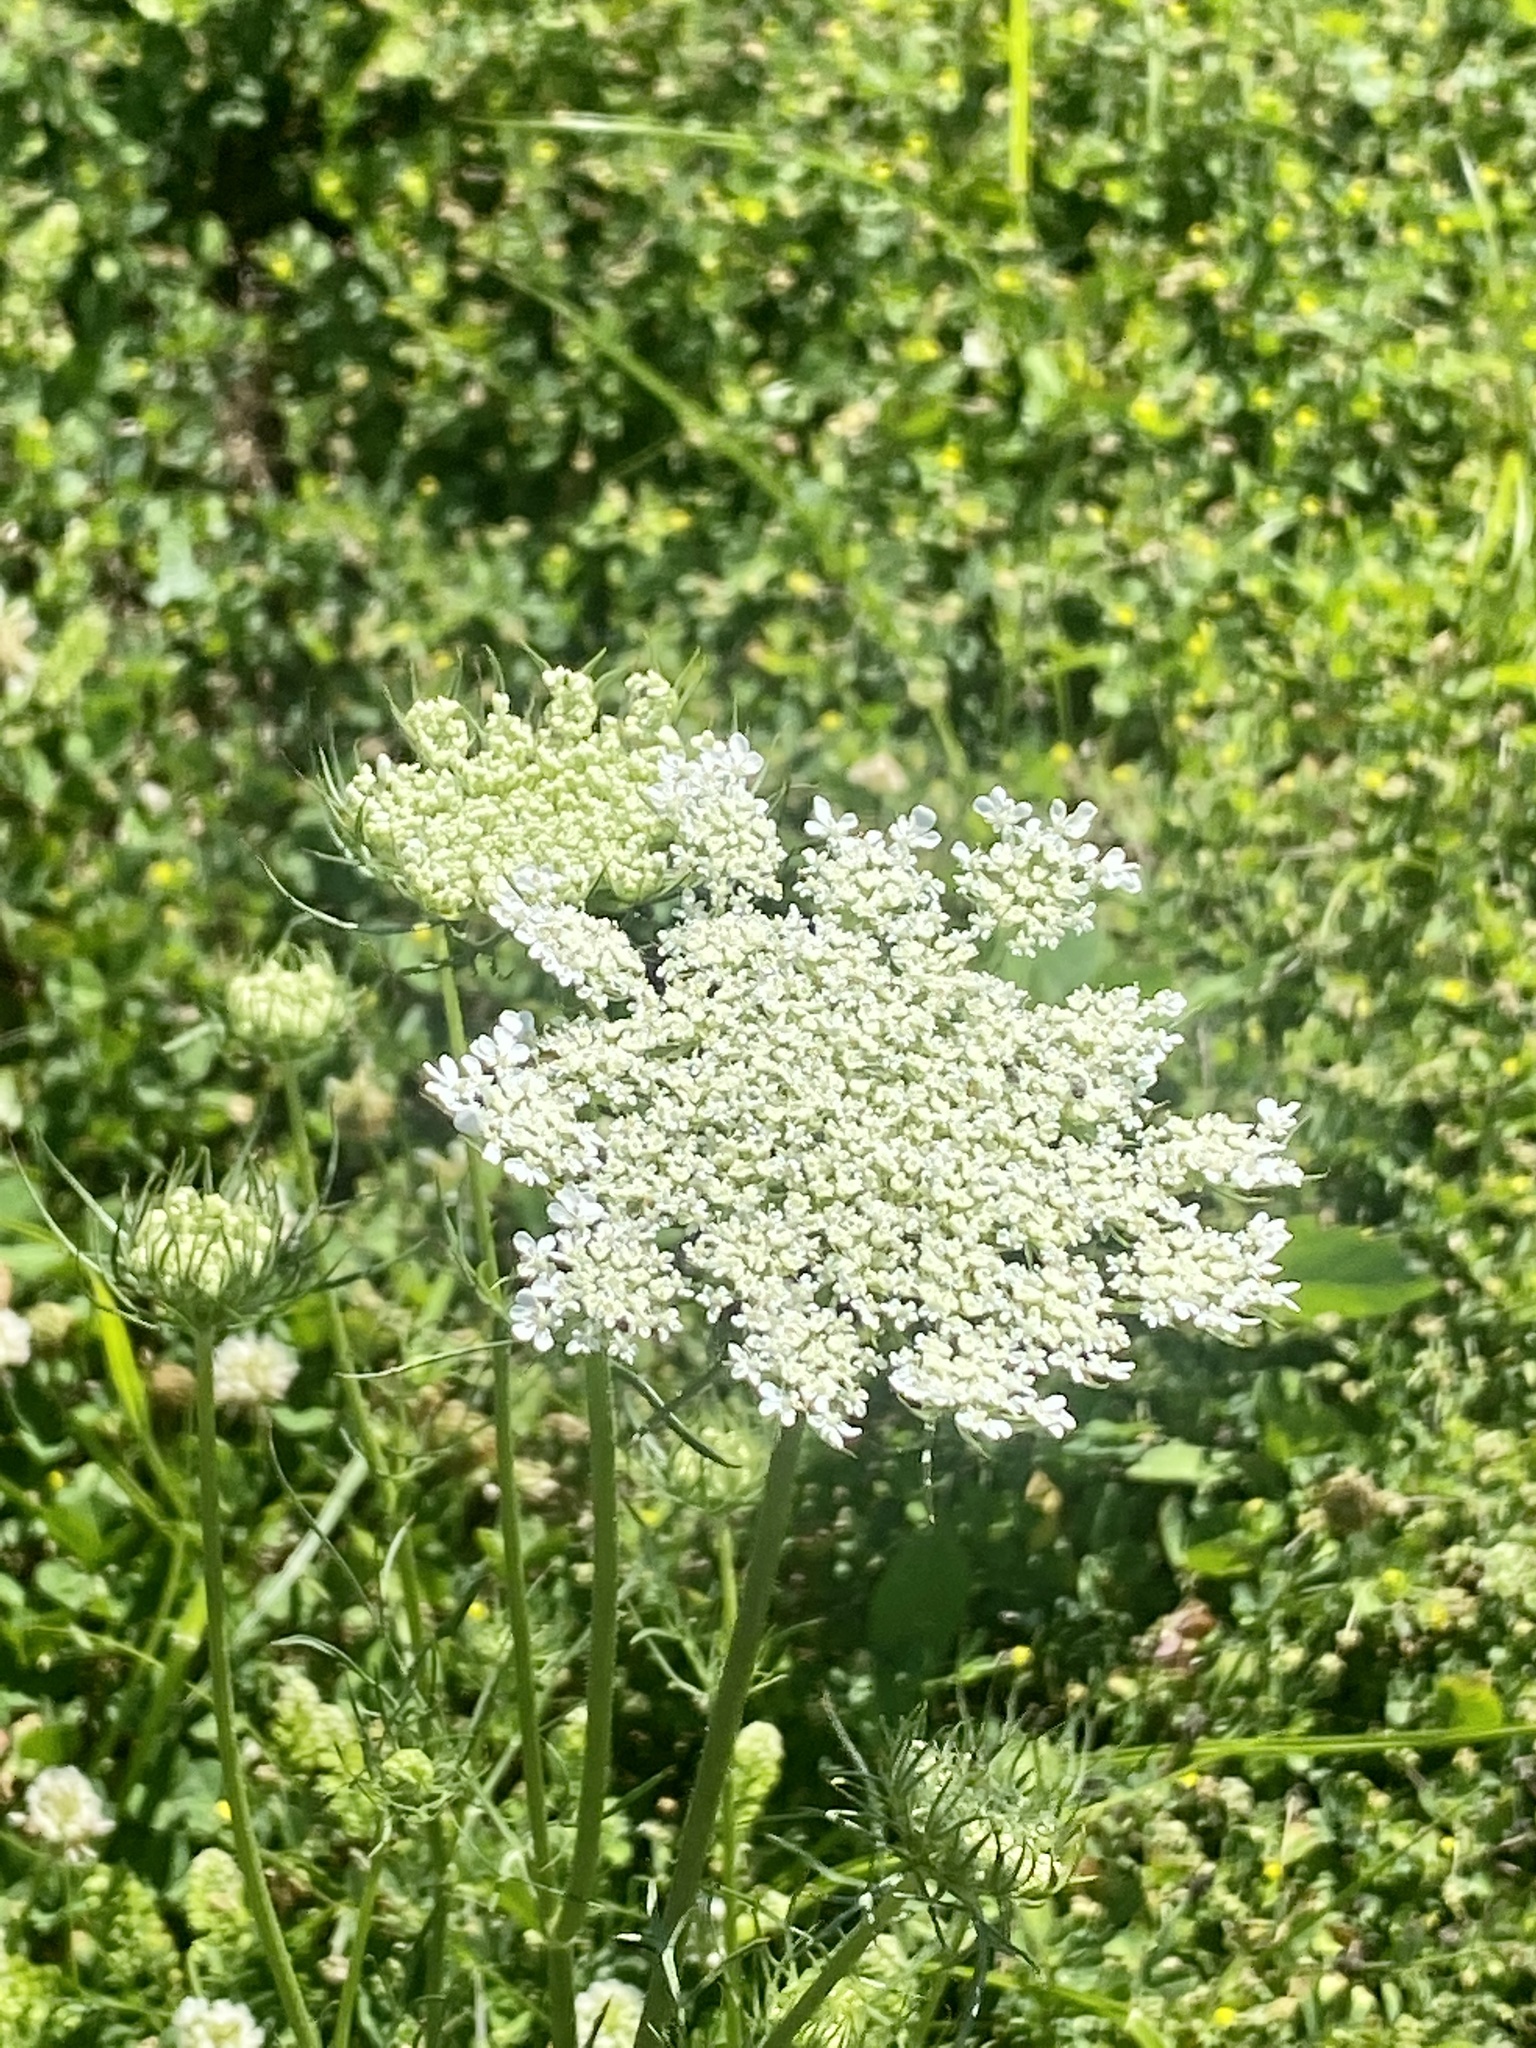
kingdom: Plantae
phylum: Tracheophyta
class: Magnoliopsida
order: Apiales
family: Apiaceae
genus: Daucus
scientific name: Daucus carota
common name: Wild carrot
